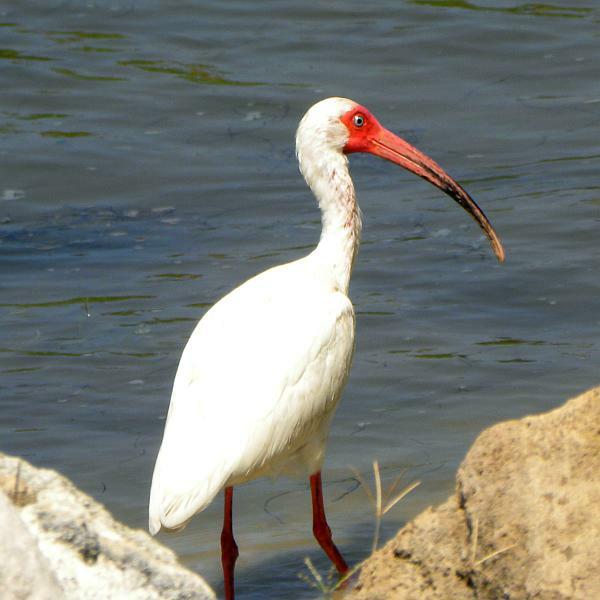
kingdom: Animalia
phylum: Chordata
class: Aves
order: Pelecaniformes
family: Threskiornithidae
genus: Eudocimus
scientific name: Eudocimus albus
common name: White ibis
